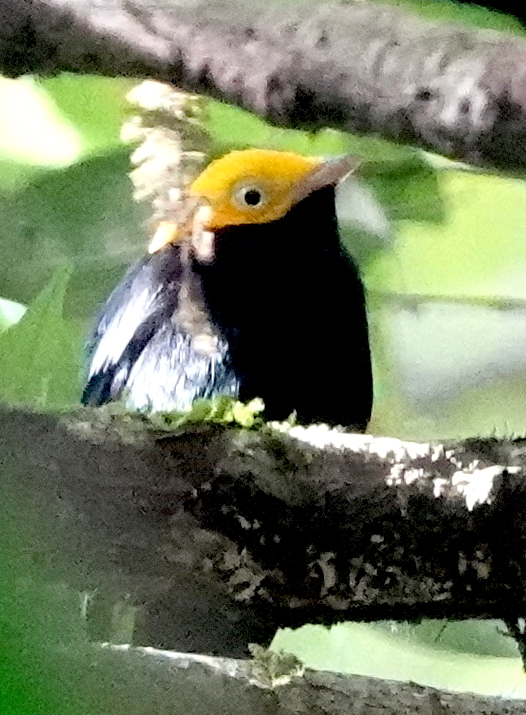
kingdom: Animalia
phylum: Chordata
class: Aves
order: Passeriformes
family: Pipridae
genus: Pipra
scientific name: Pipra erythrocephala
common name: Golden-headed manakin
